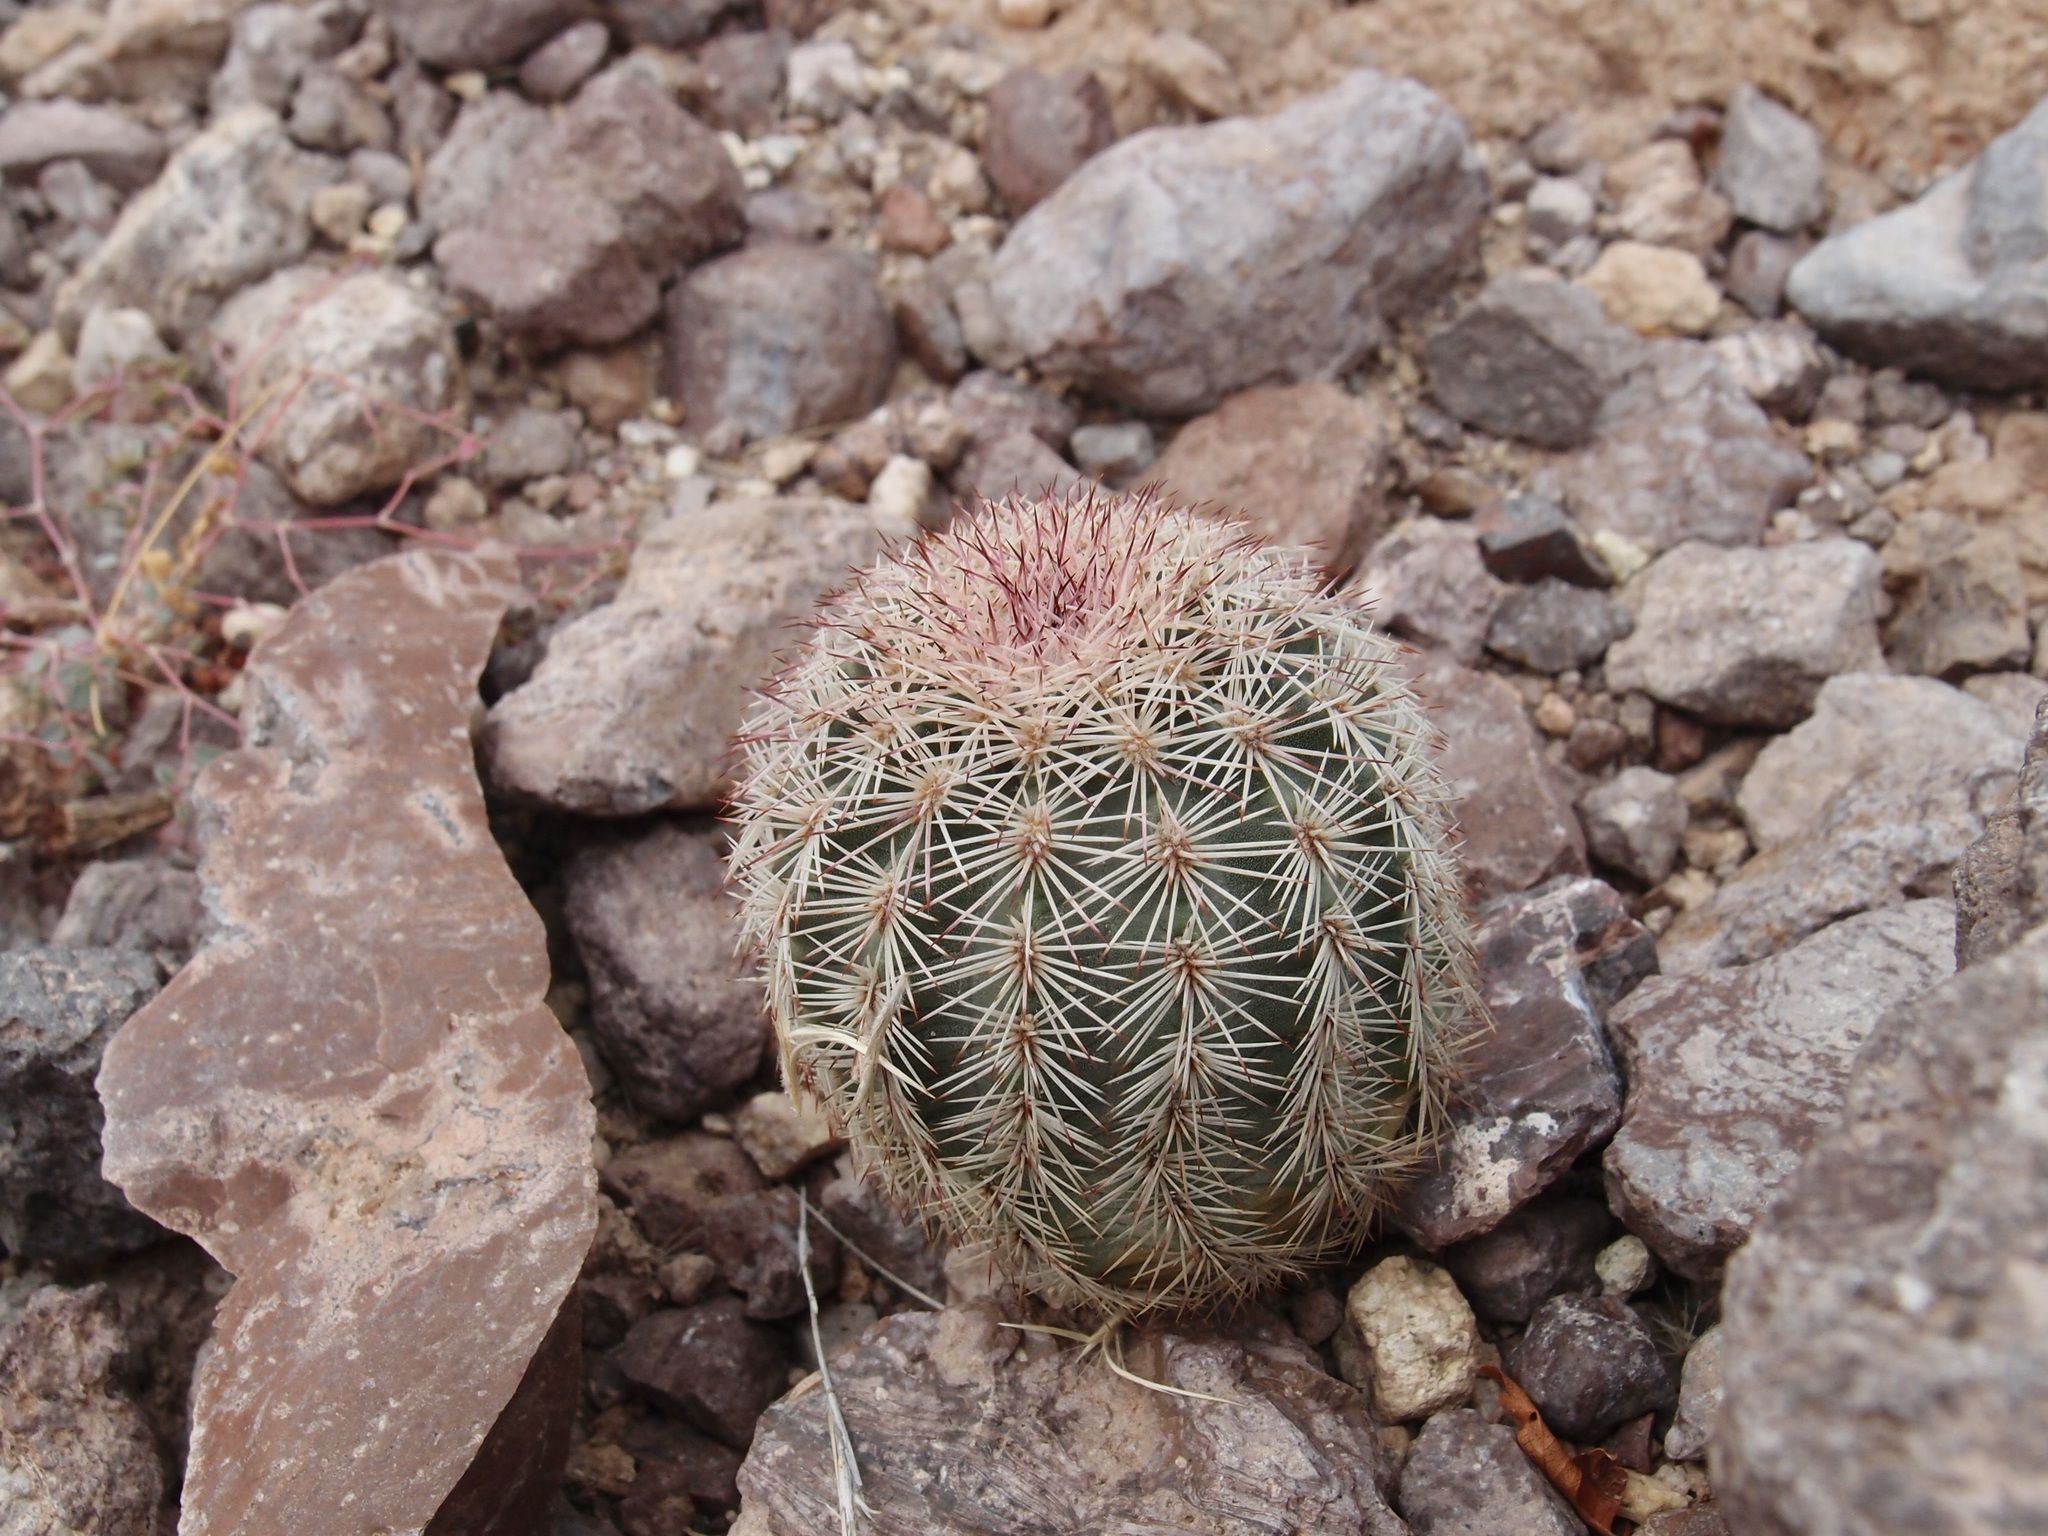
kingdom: Plantae
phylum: Tracheophyta
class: Magnoliopsida
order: Caryophyllales
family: Cactaceae
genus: Echinocereus
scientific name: Echinocereus scopulorum
